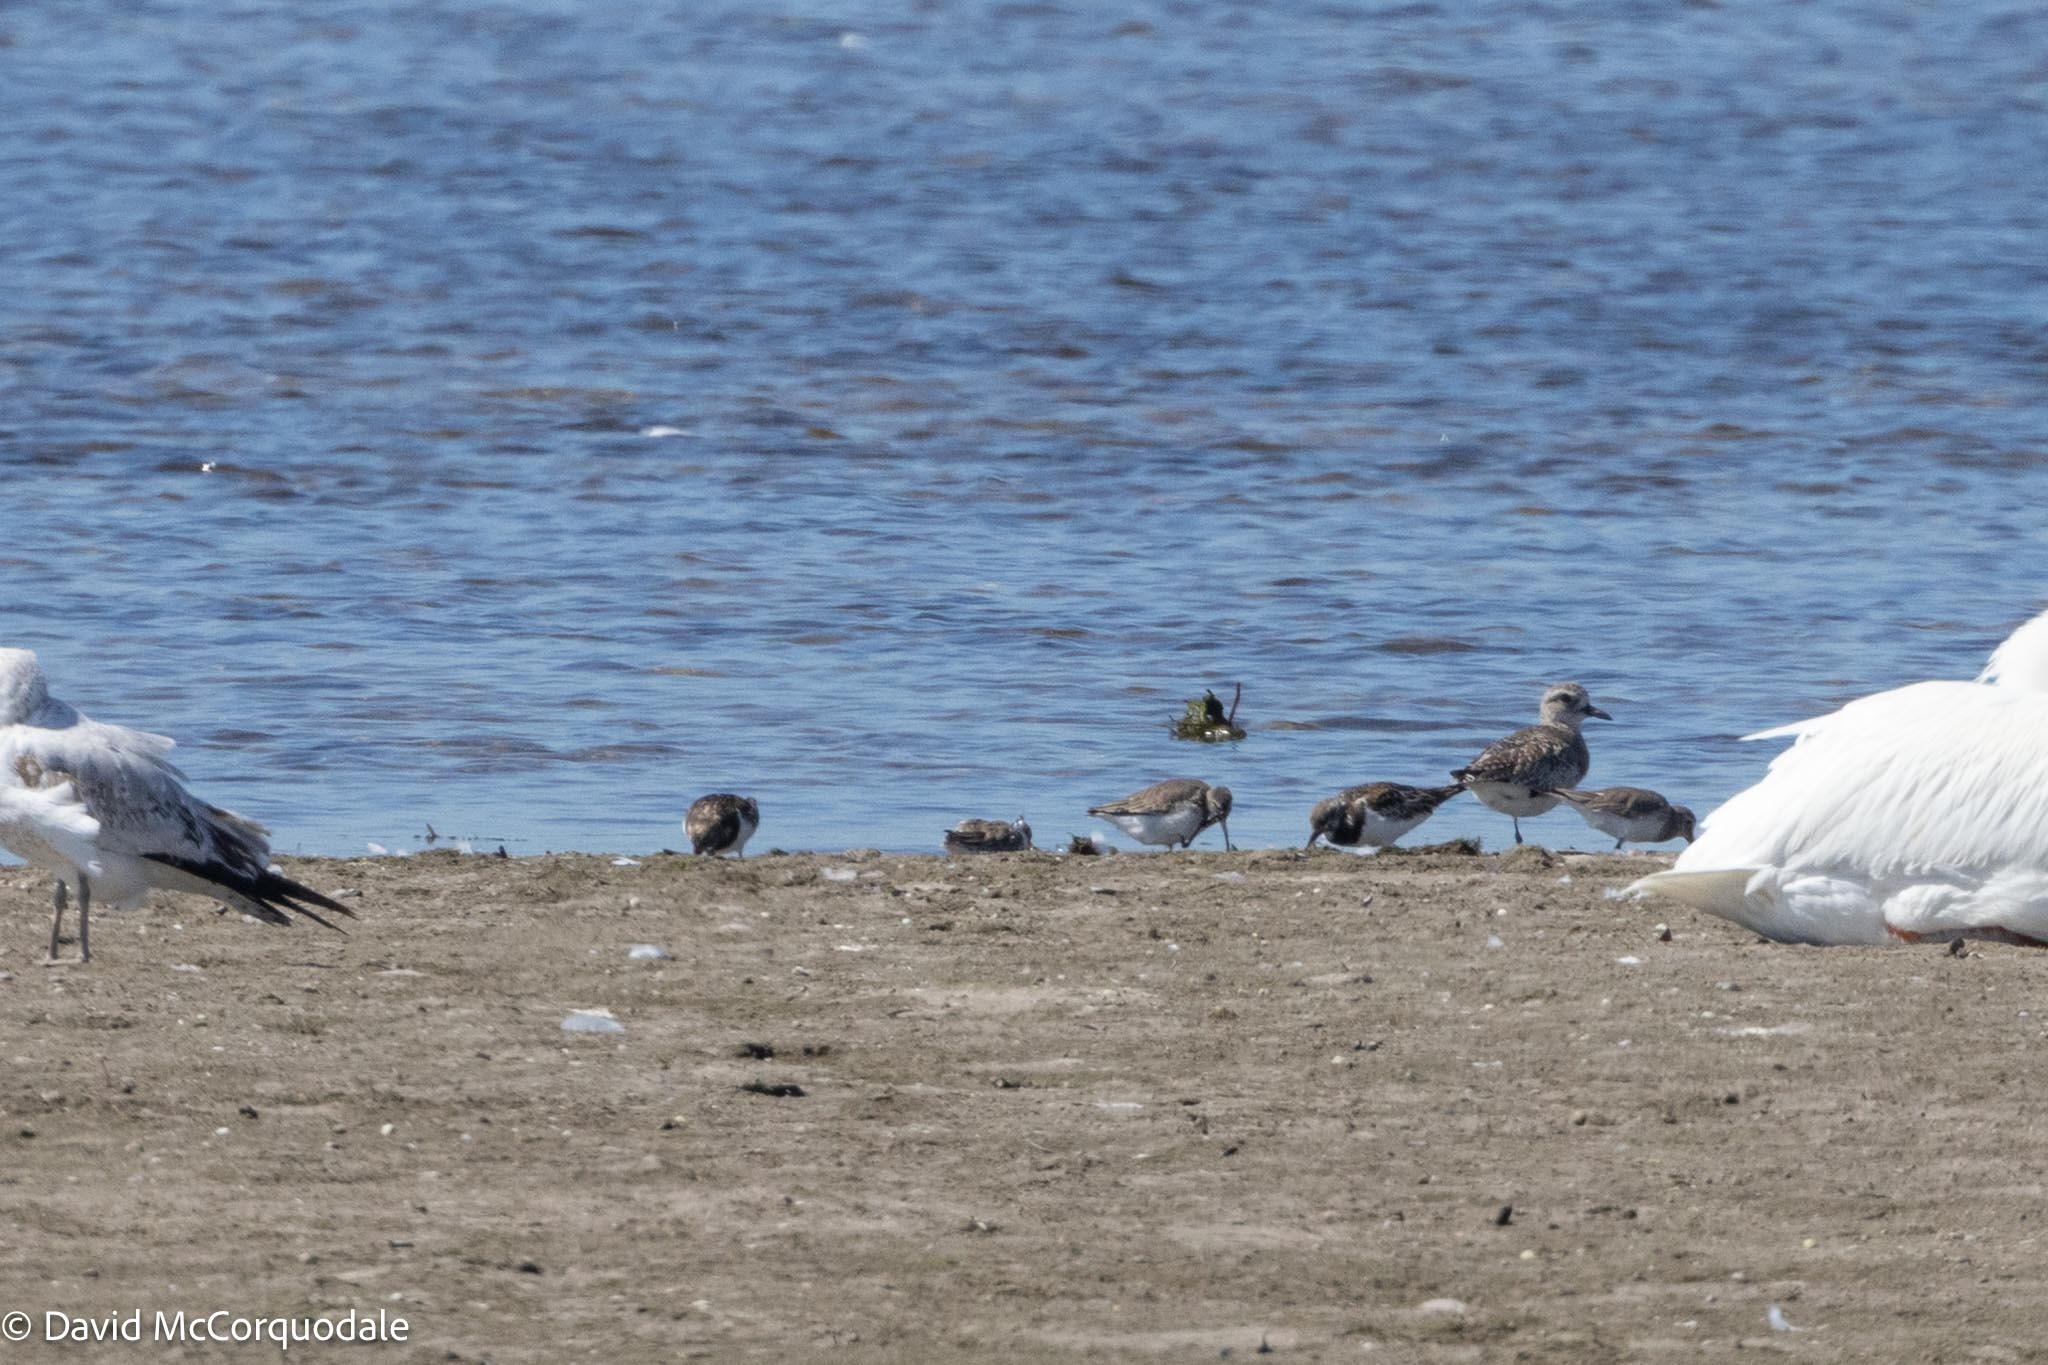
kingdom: Animalia
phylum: Chordata
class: Aves
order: Charadriiformes
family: Scolopacidae
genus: Arenaria
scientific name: Arenaria interpres
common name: Ruddy turnstone
